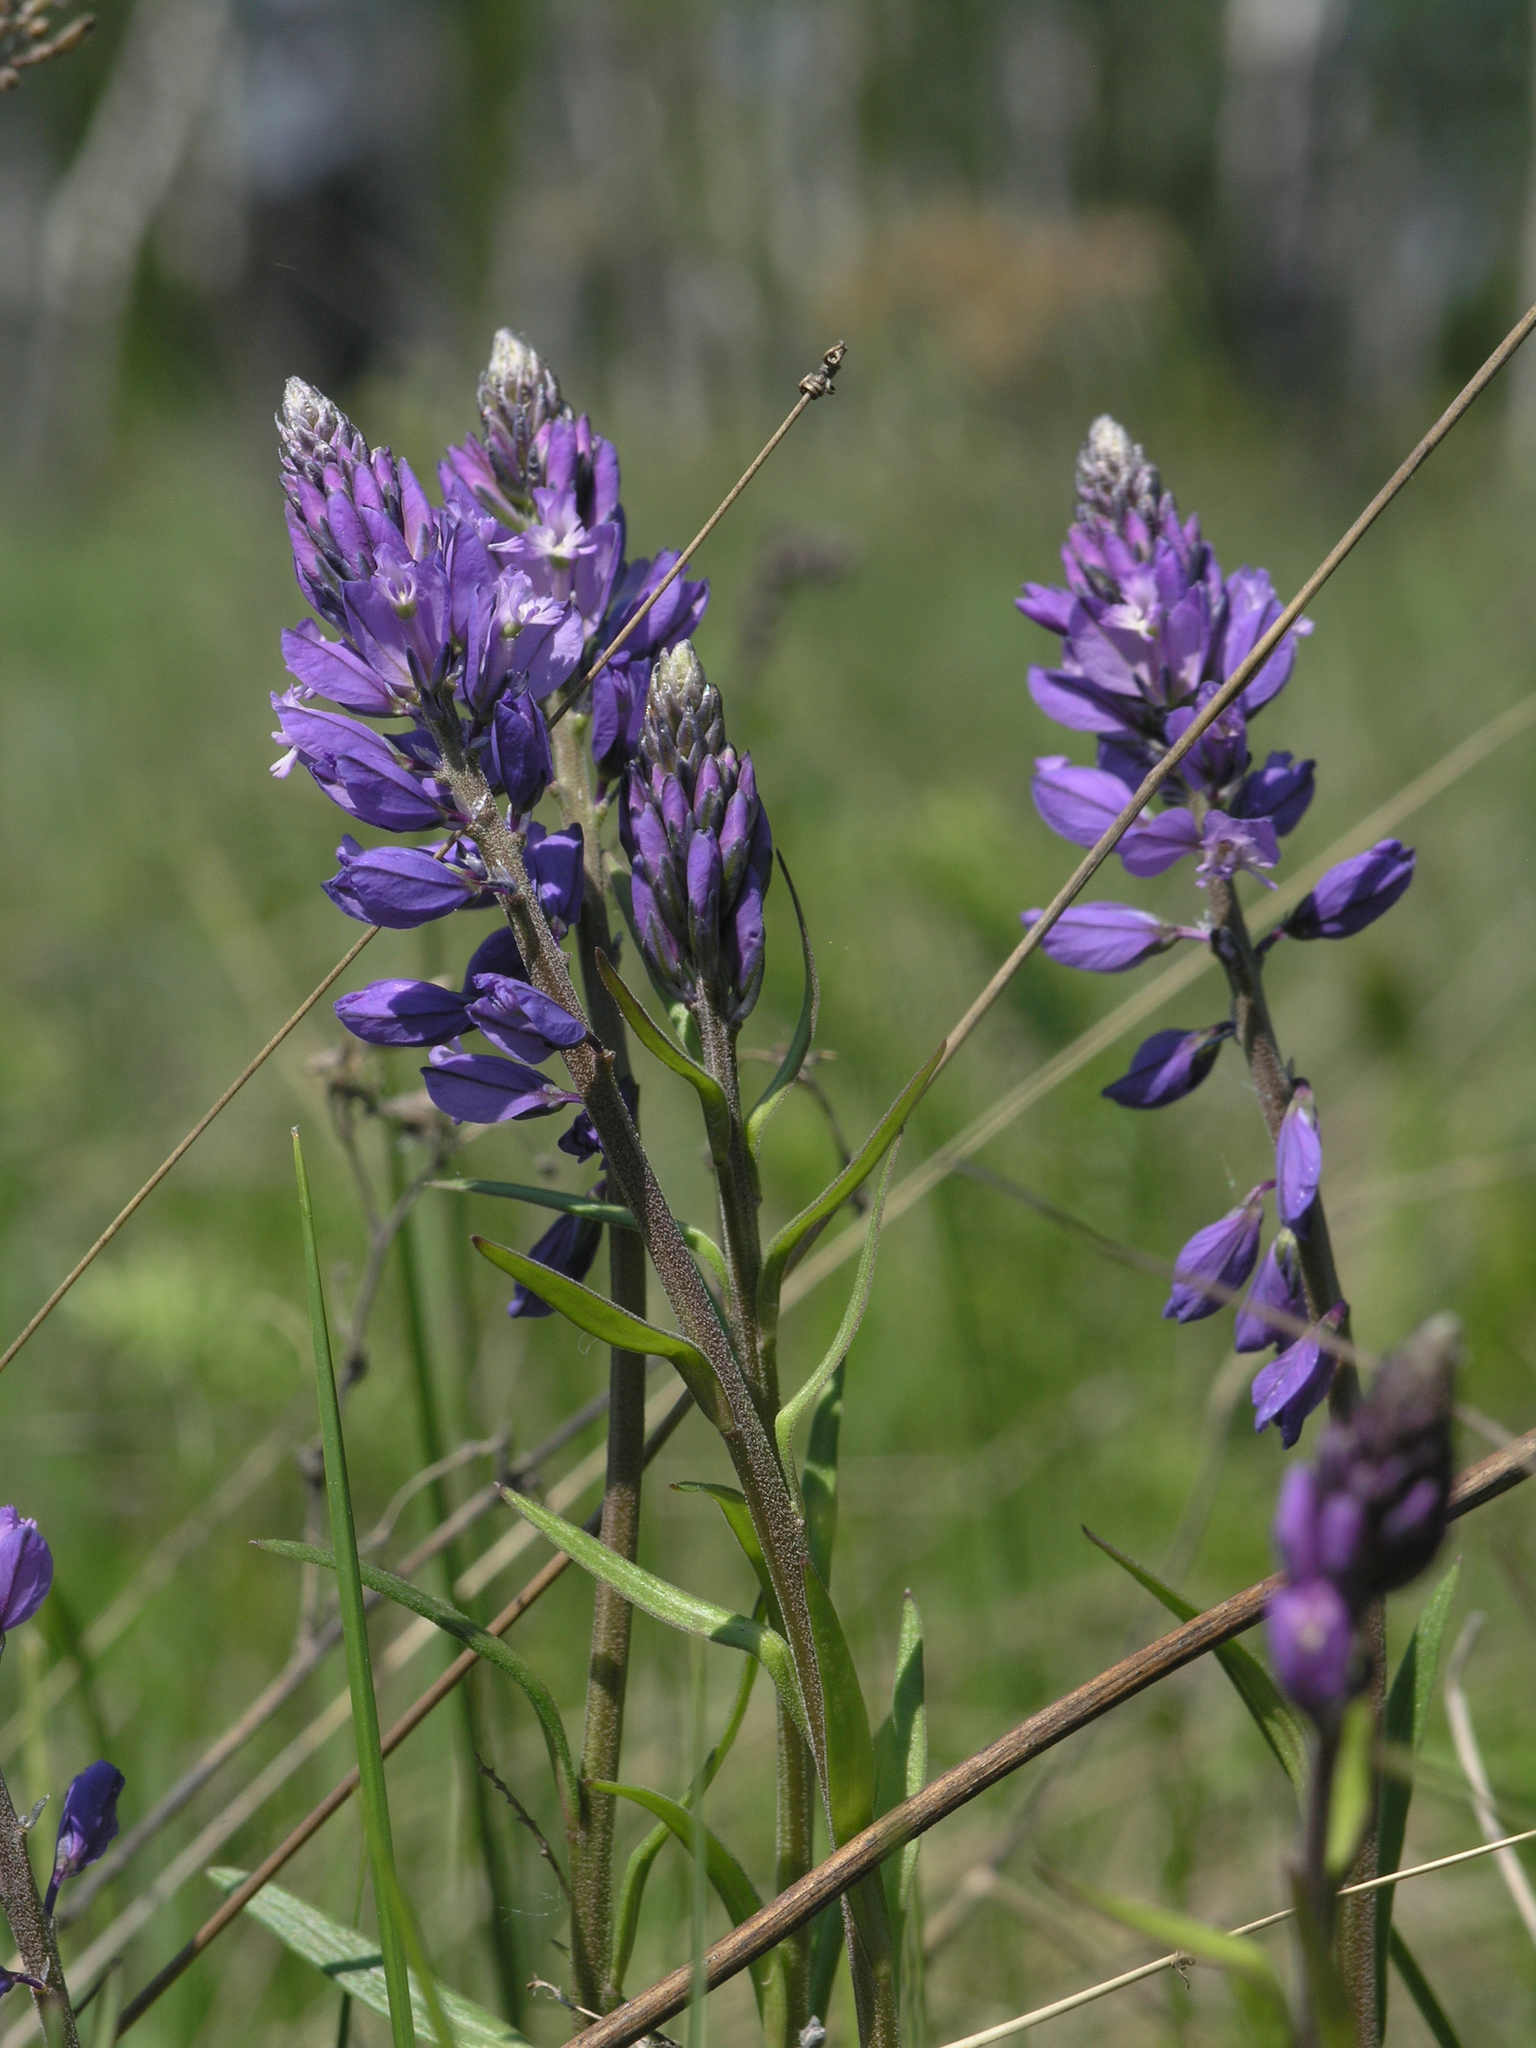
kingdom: Plantae
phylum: Tracheophyta
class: Magnoliopsida
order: Fabales
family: Polygalaceae
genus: Polygala
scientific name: Polygala comosa
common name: Tufted milkwort
